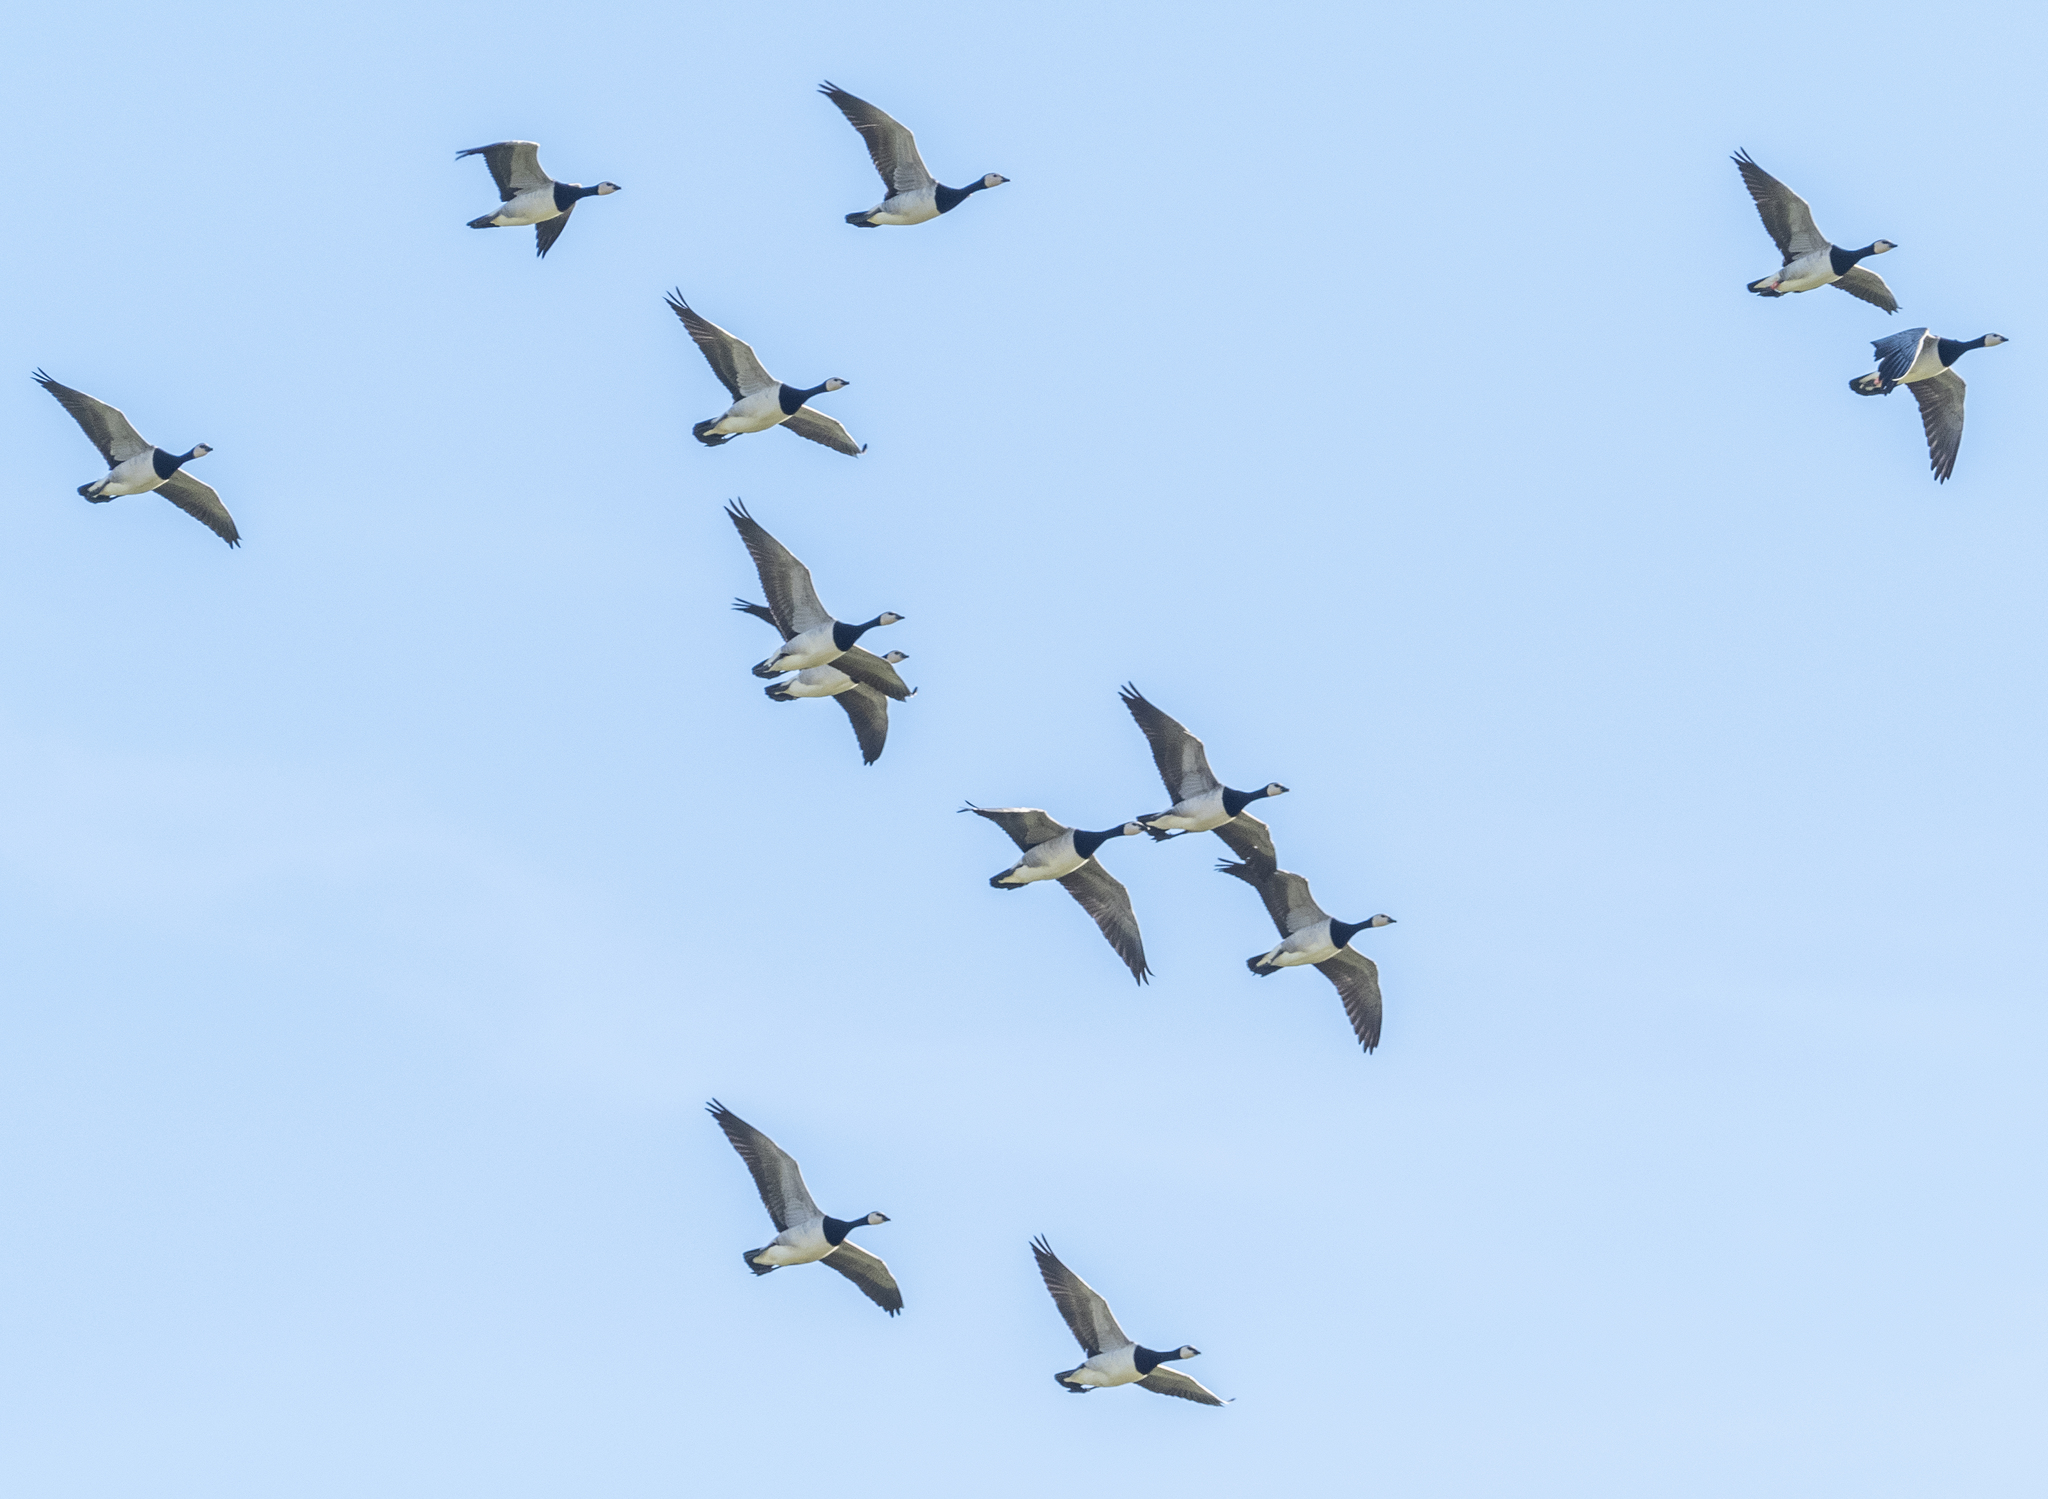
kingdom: Animalia
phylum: Chordata
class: Aves
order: Anseriformes
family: Anatidae
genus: Branta
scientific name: Branta leucopsis
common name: Barnacle goose
